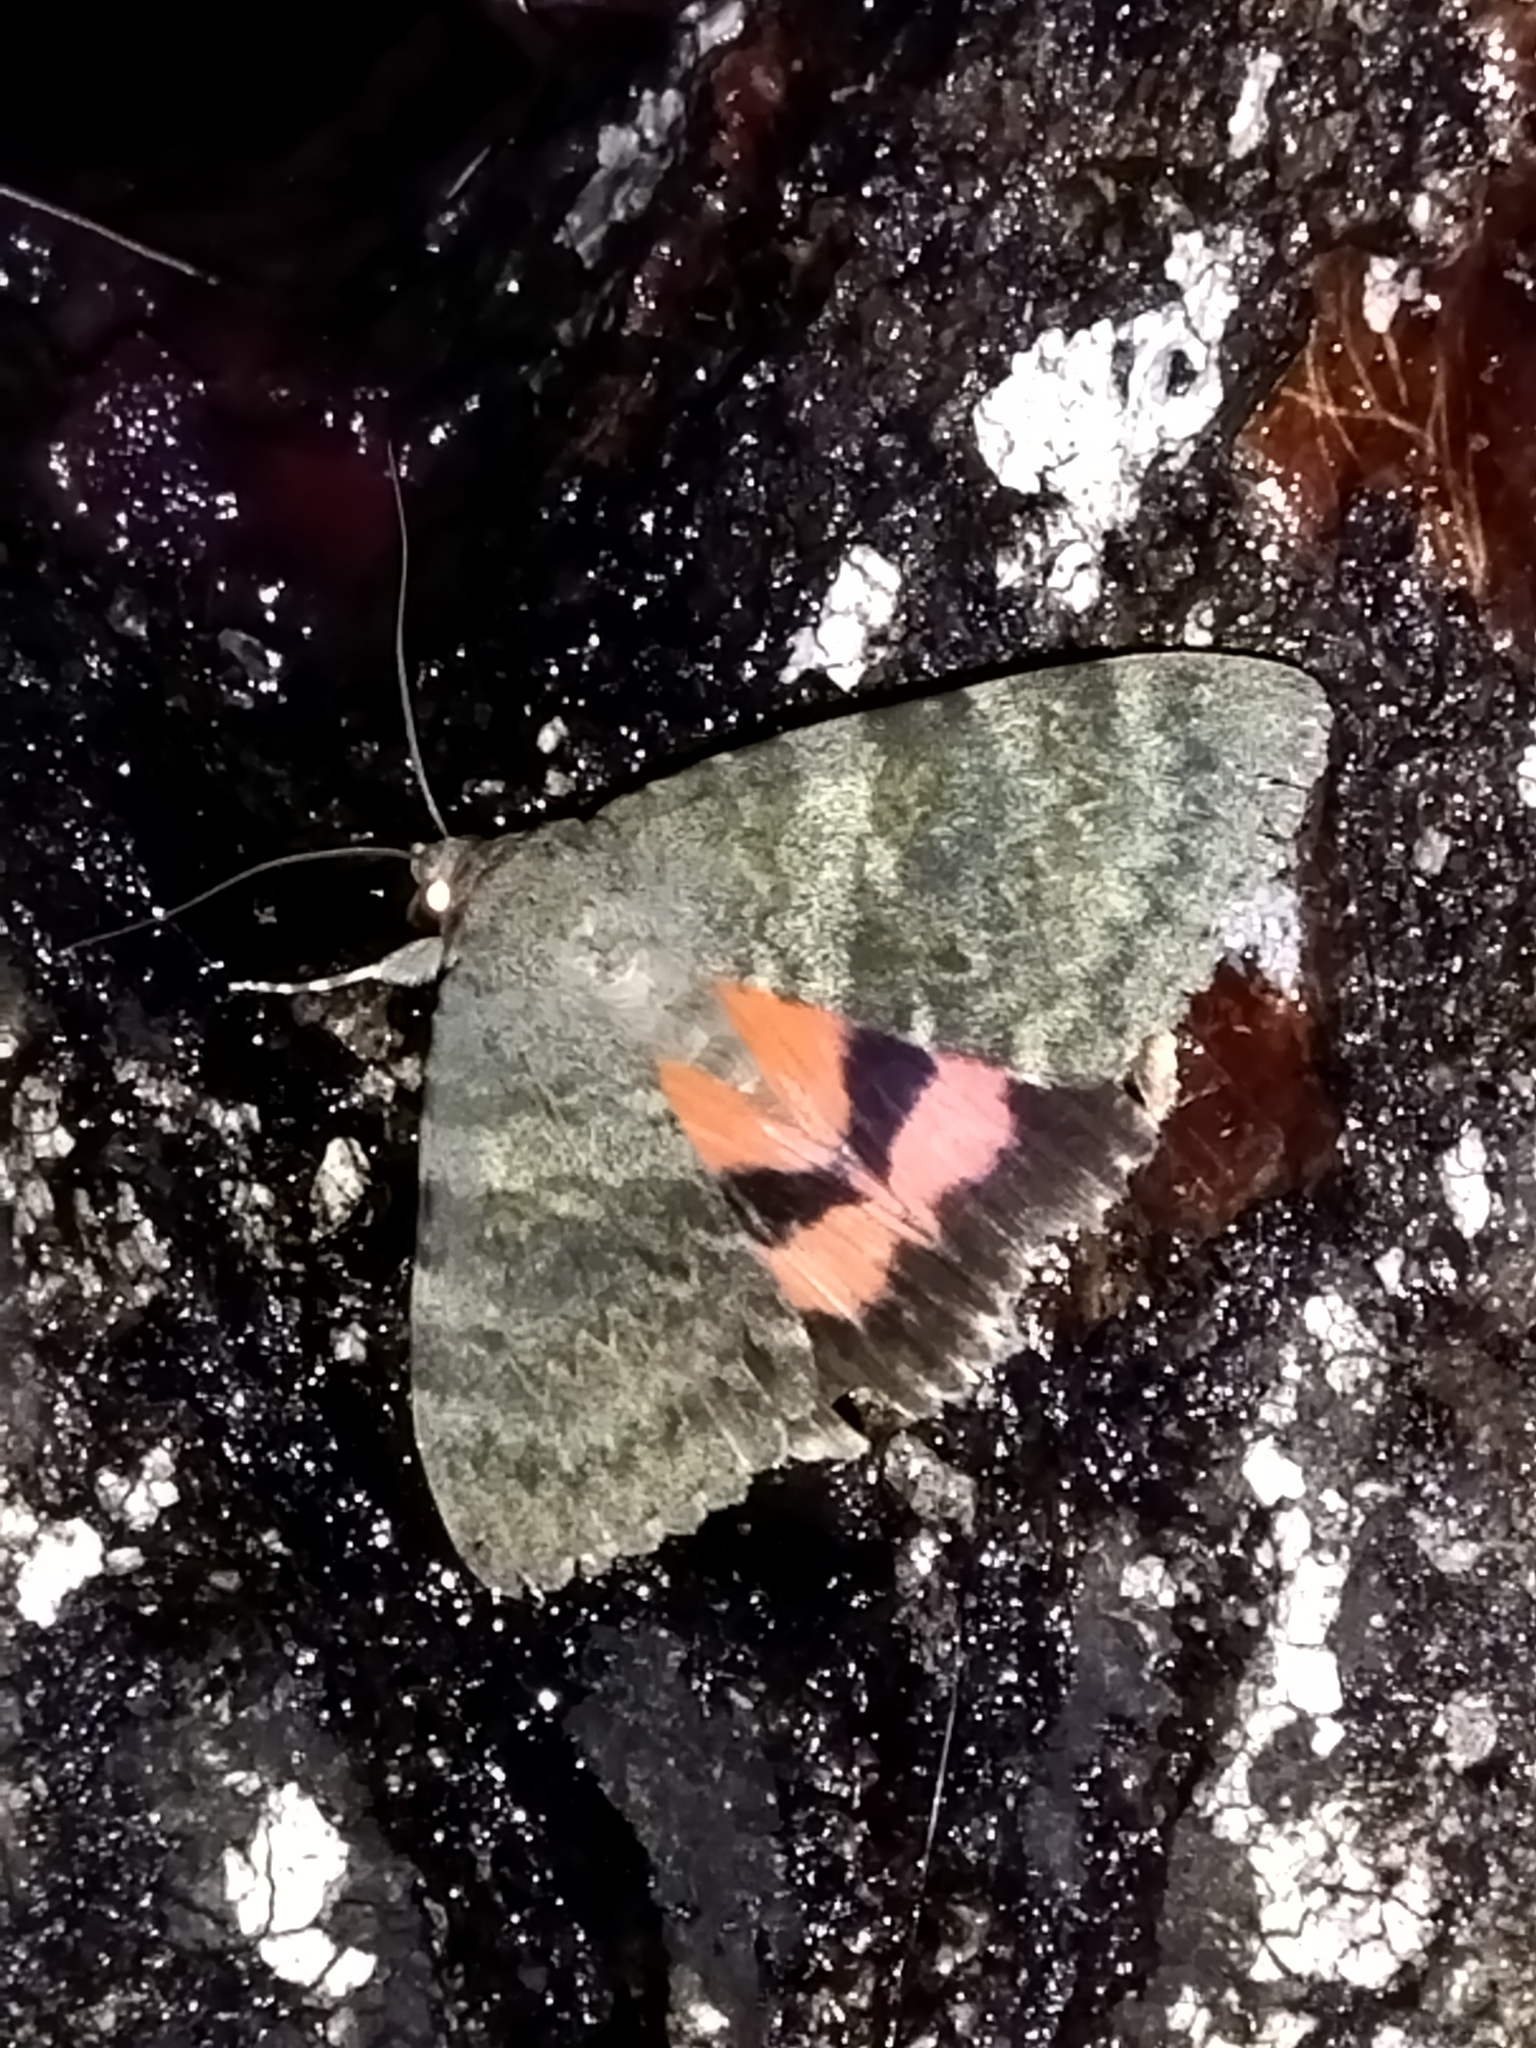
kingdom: Animalia
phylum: Arthropoda
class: Insecta
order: Lepidoptera
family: Erebidae
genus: Catocala
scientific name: Catocala elocata
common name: French red underwing
